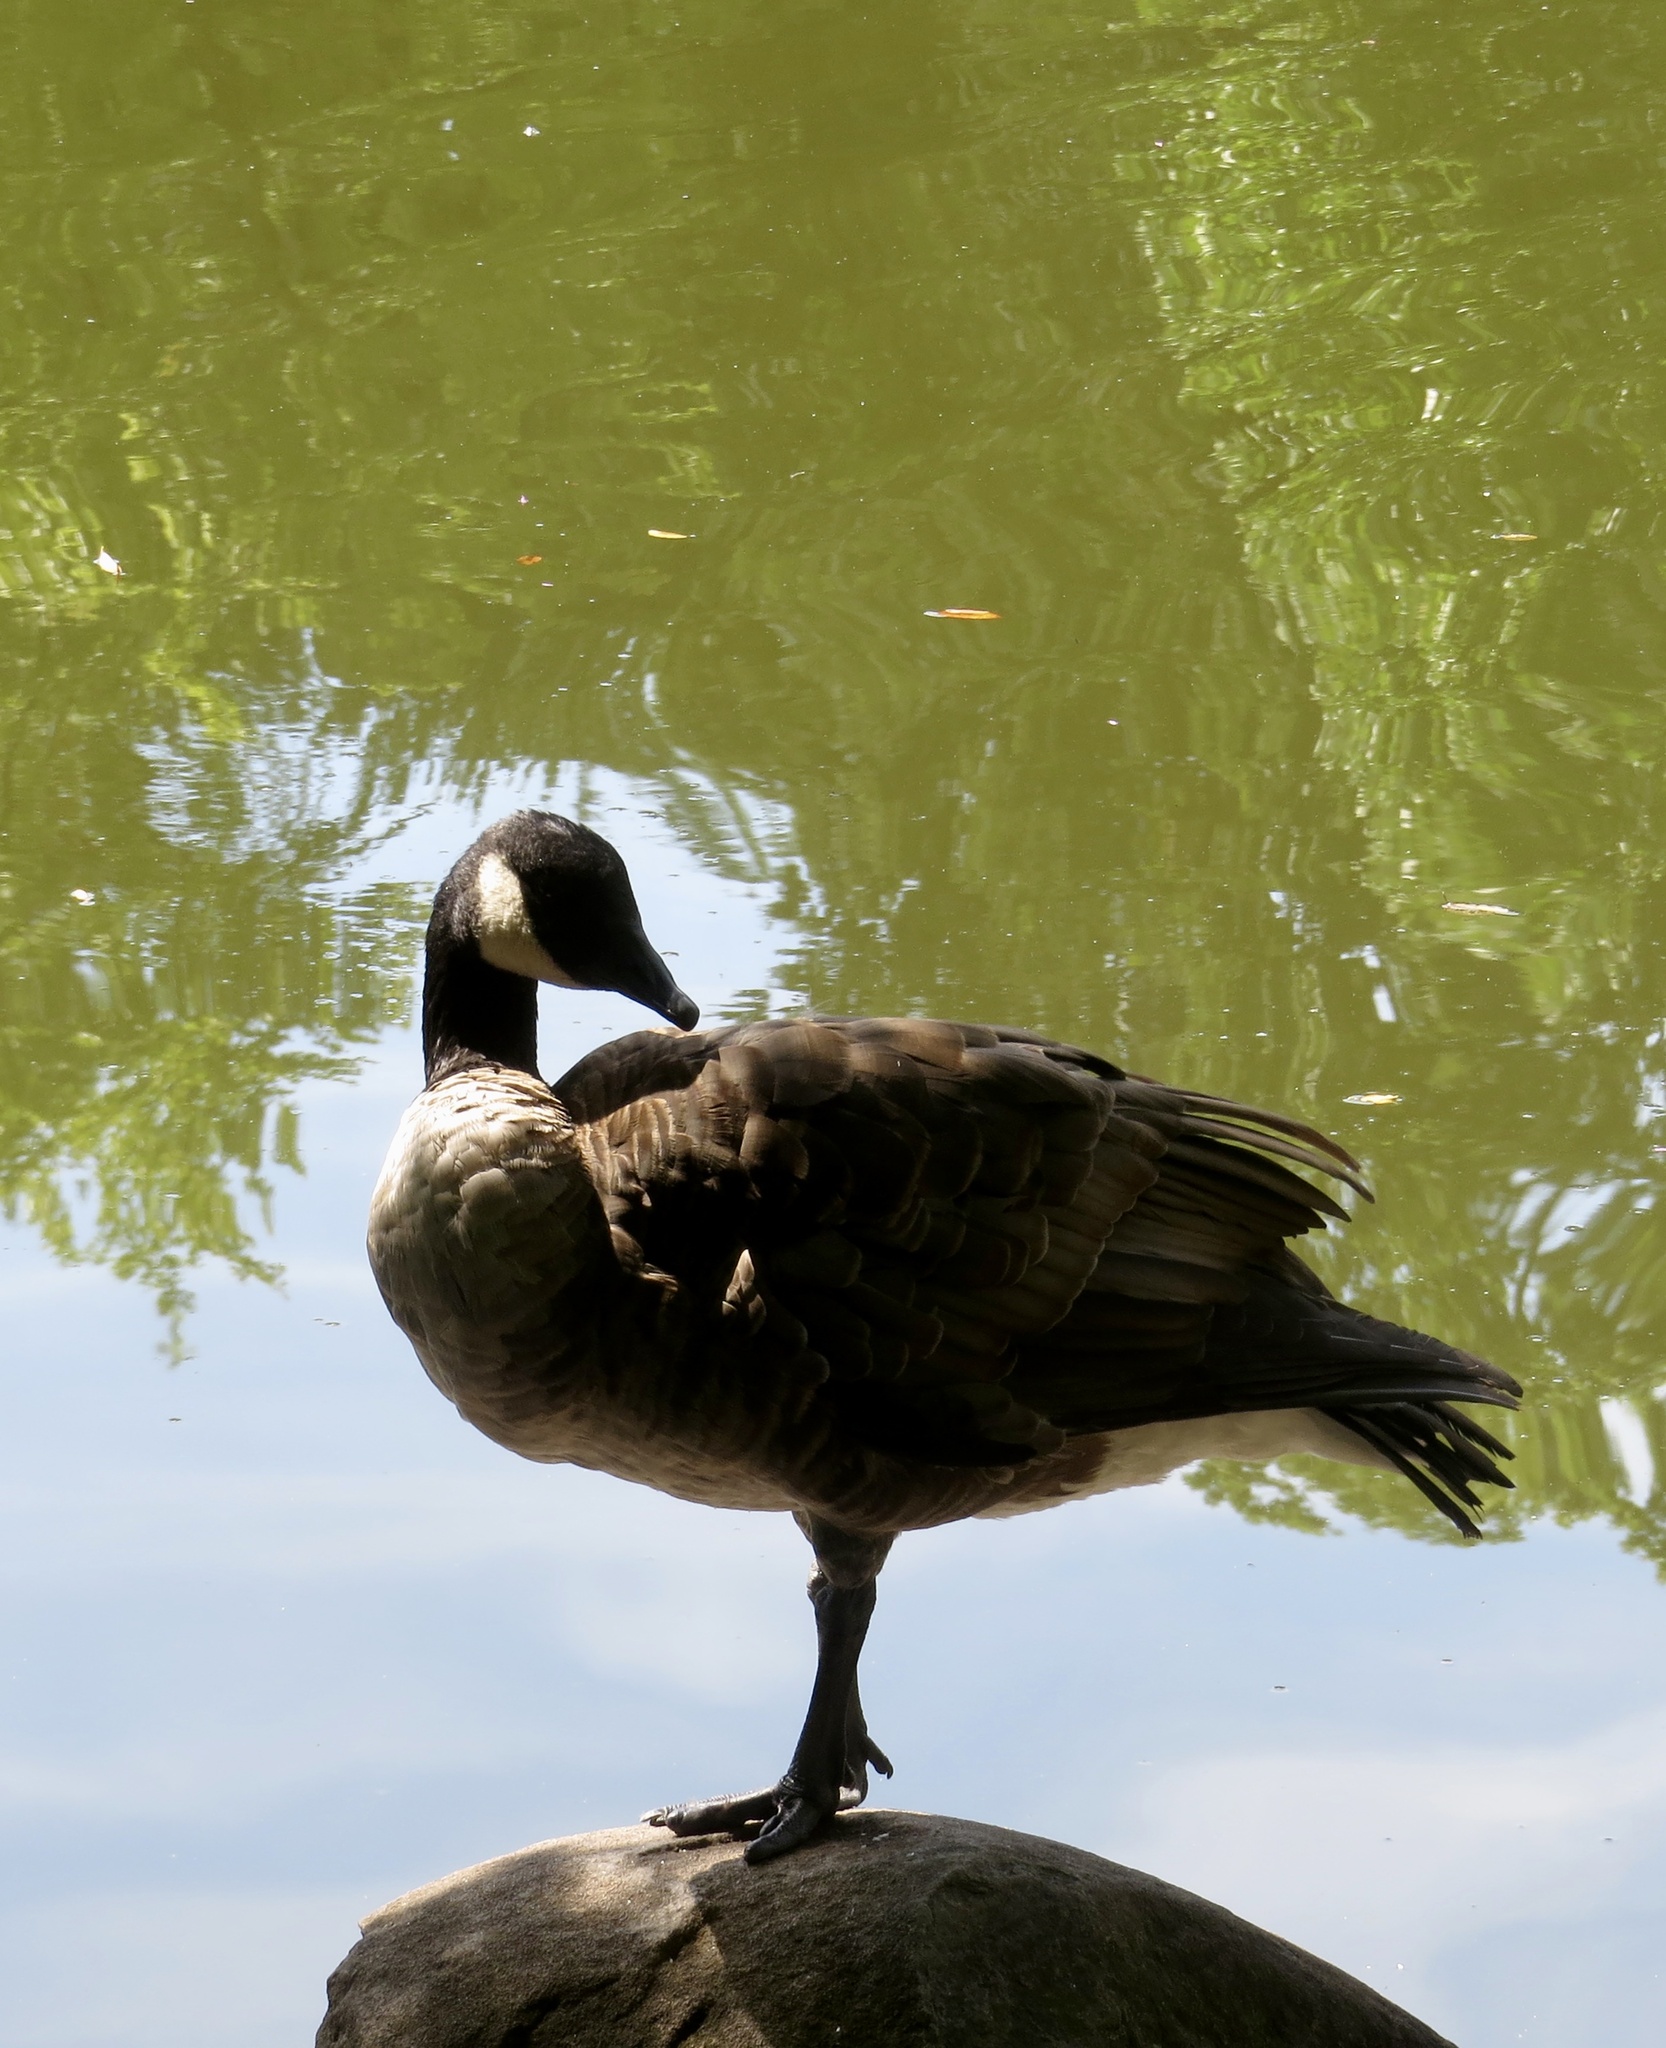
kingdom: Animalia
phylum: Chordata
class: Aves
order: Anseriformes
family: Anatidae
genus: Branta
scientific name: Branta canadensis
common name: Canada goose
